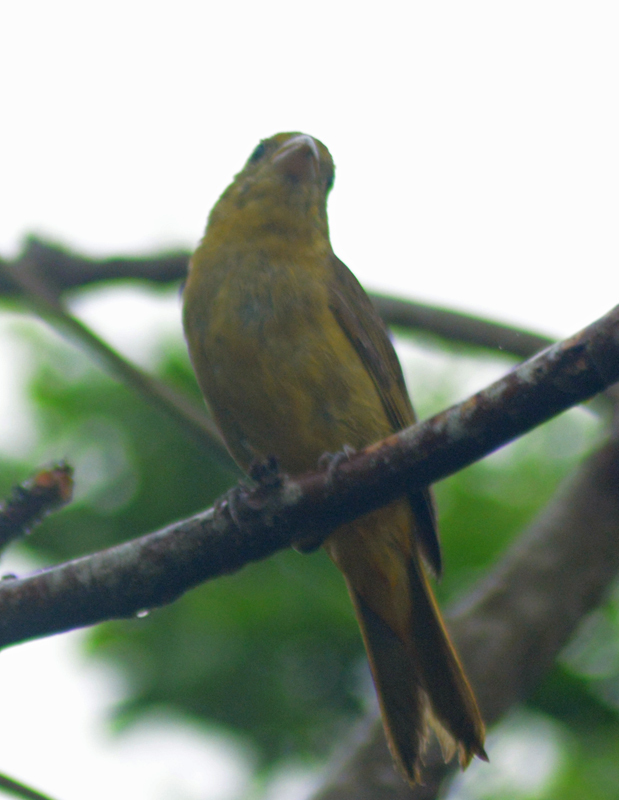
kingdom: Animalia
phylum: Chordata
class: Aves
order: Passeriformes
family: Cardinalidae
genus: Piranga
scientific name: Piranga rubra
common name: Summer tanager
